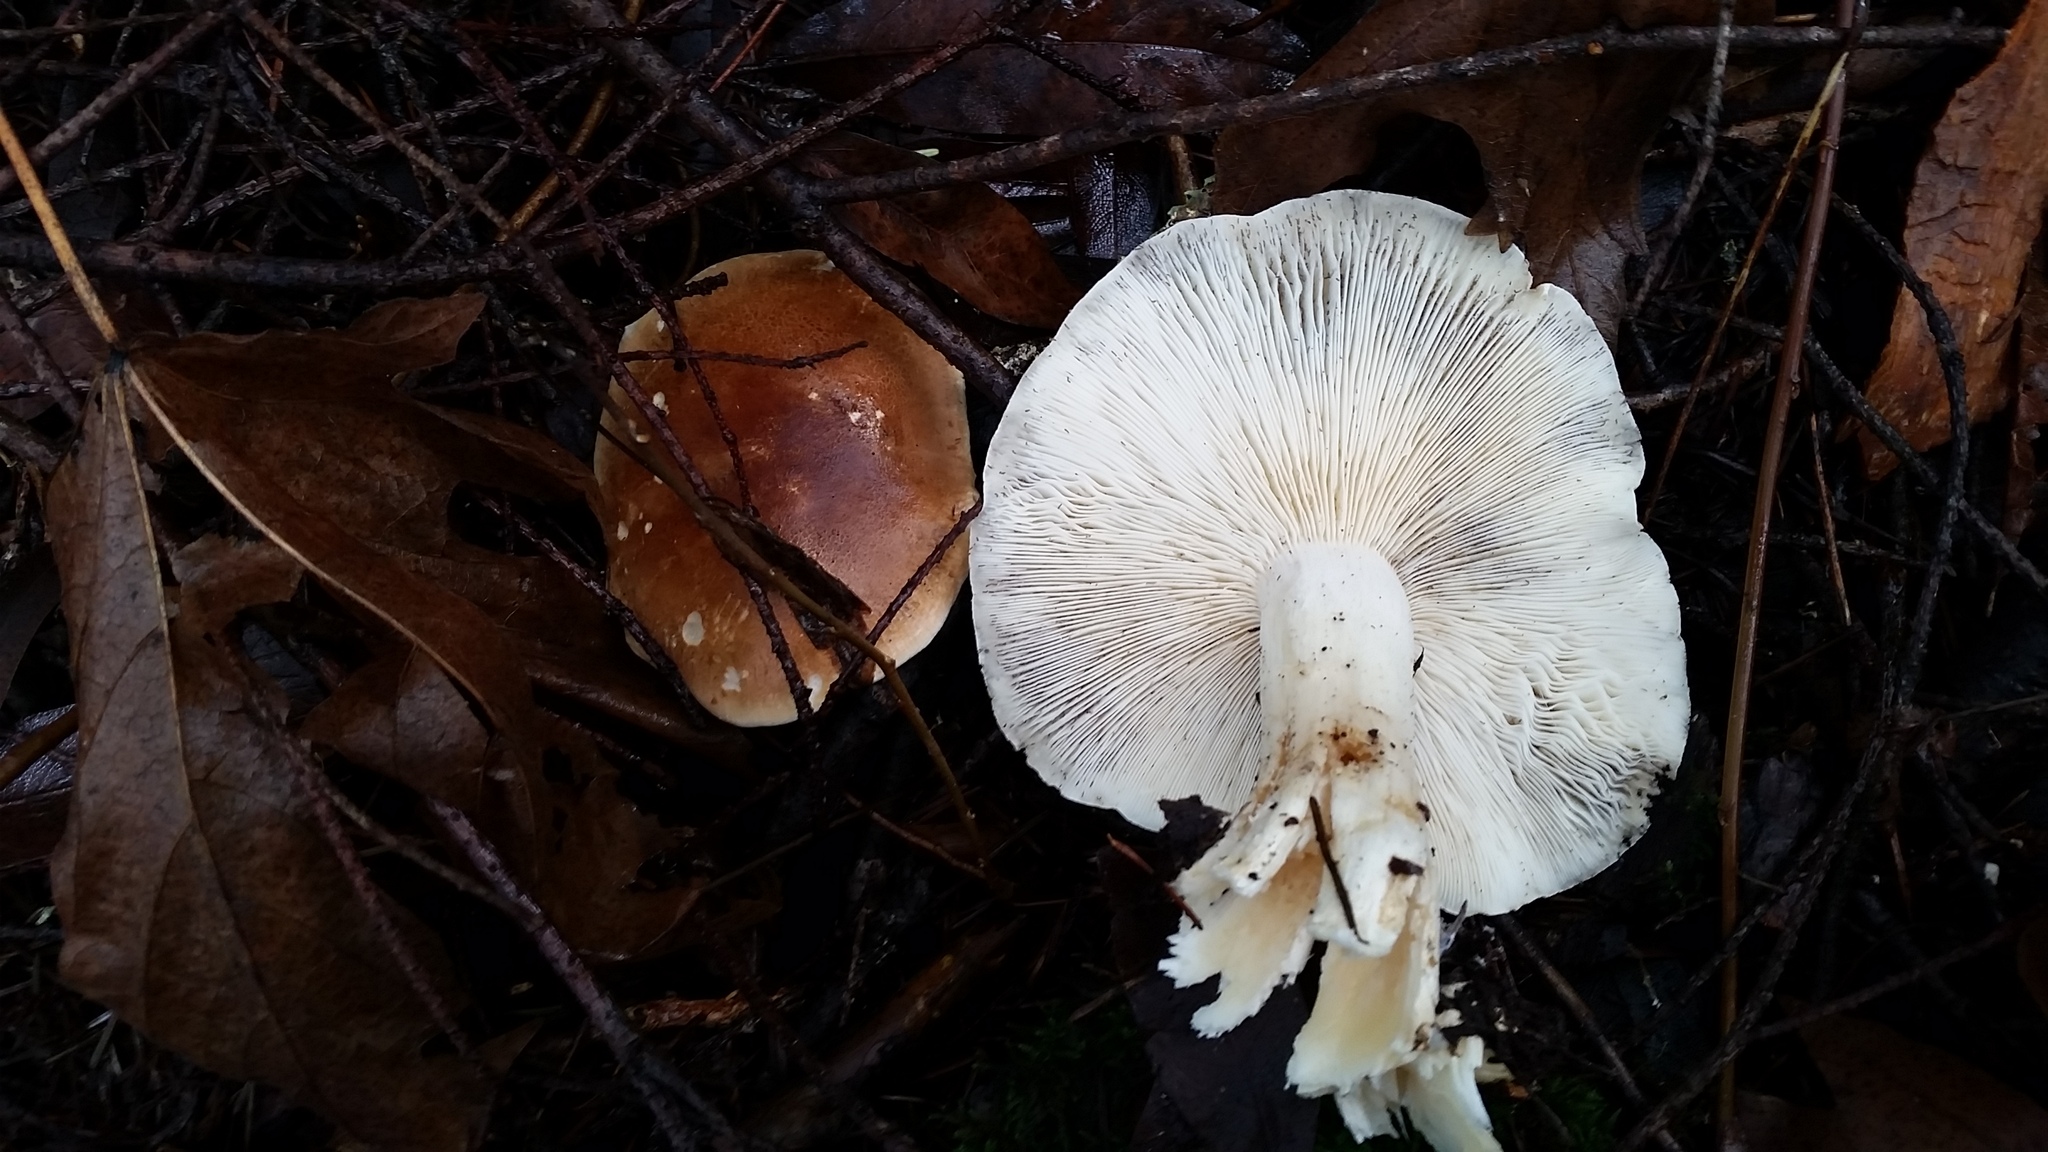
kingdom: Fungi
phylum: Basidiomycota
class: Agaricomycetes
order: Agaricales
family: Tricholomataceae
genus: Leucopaxillus
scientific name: Leucopaxillus gentianeus
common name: Bitter funnel
